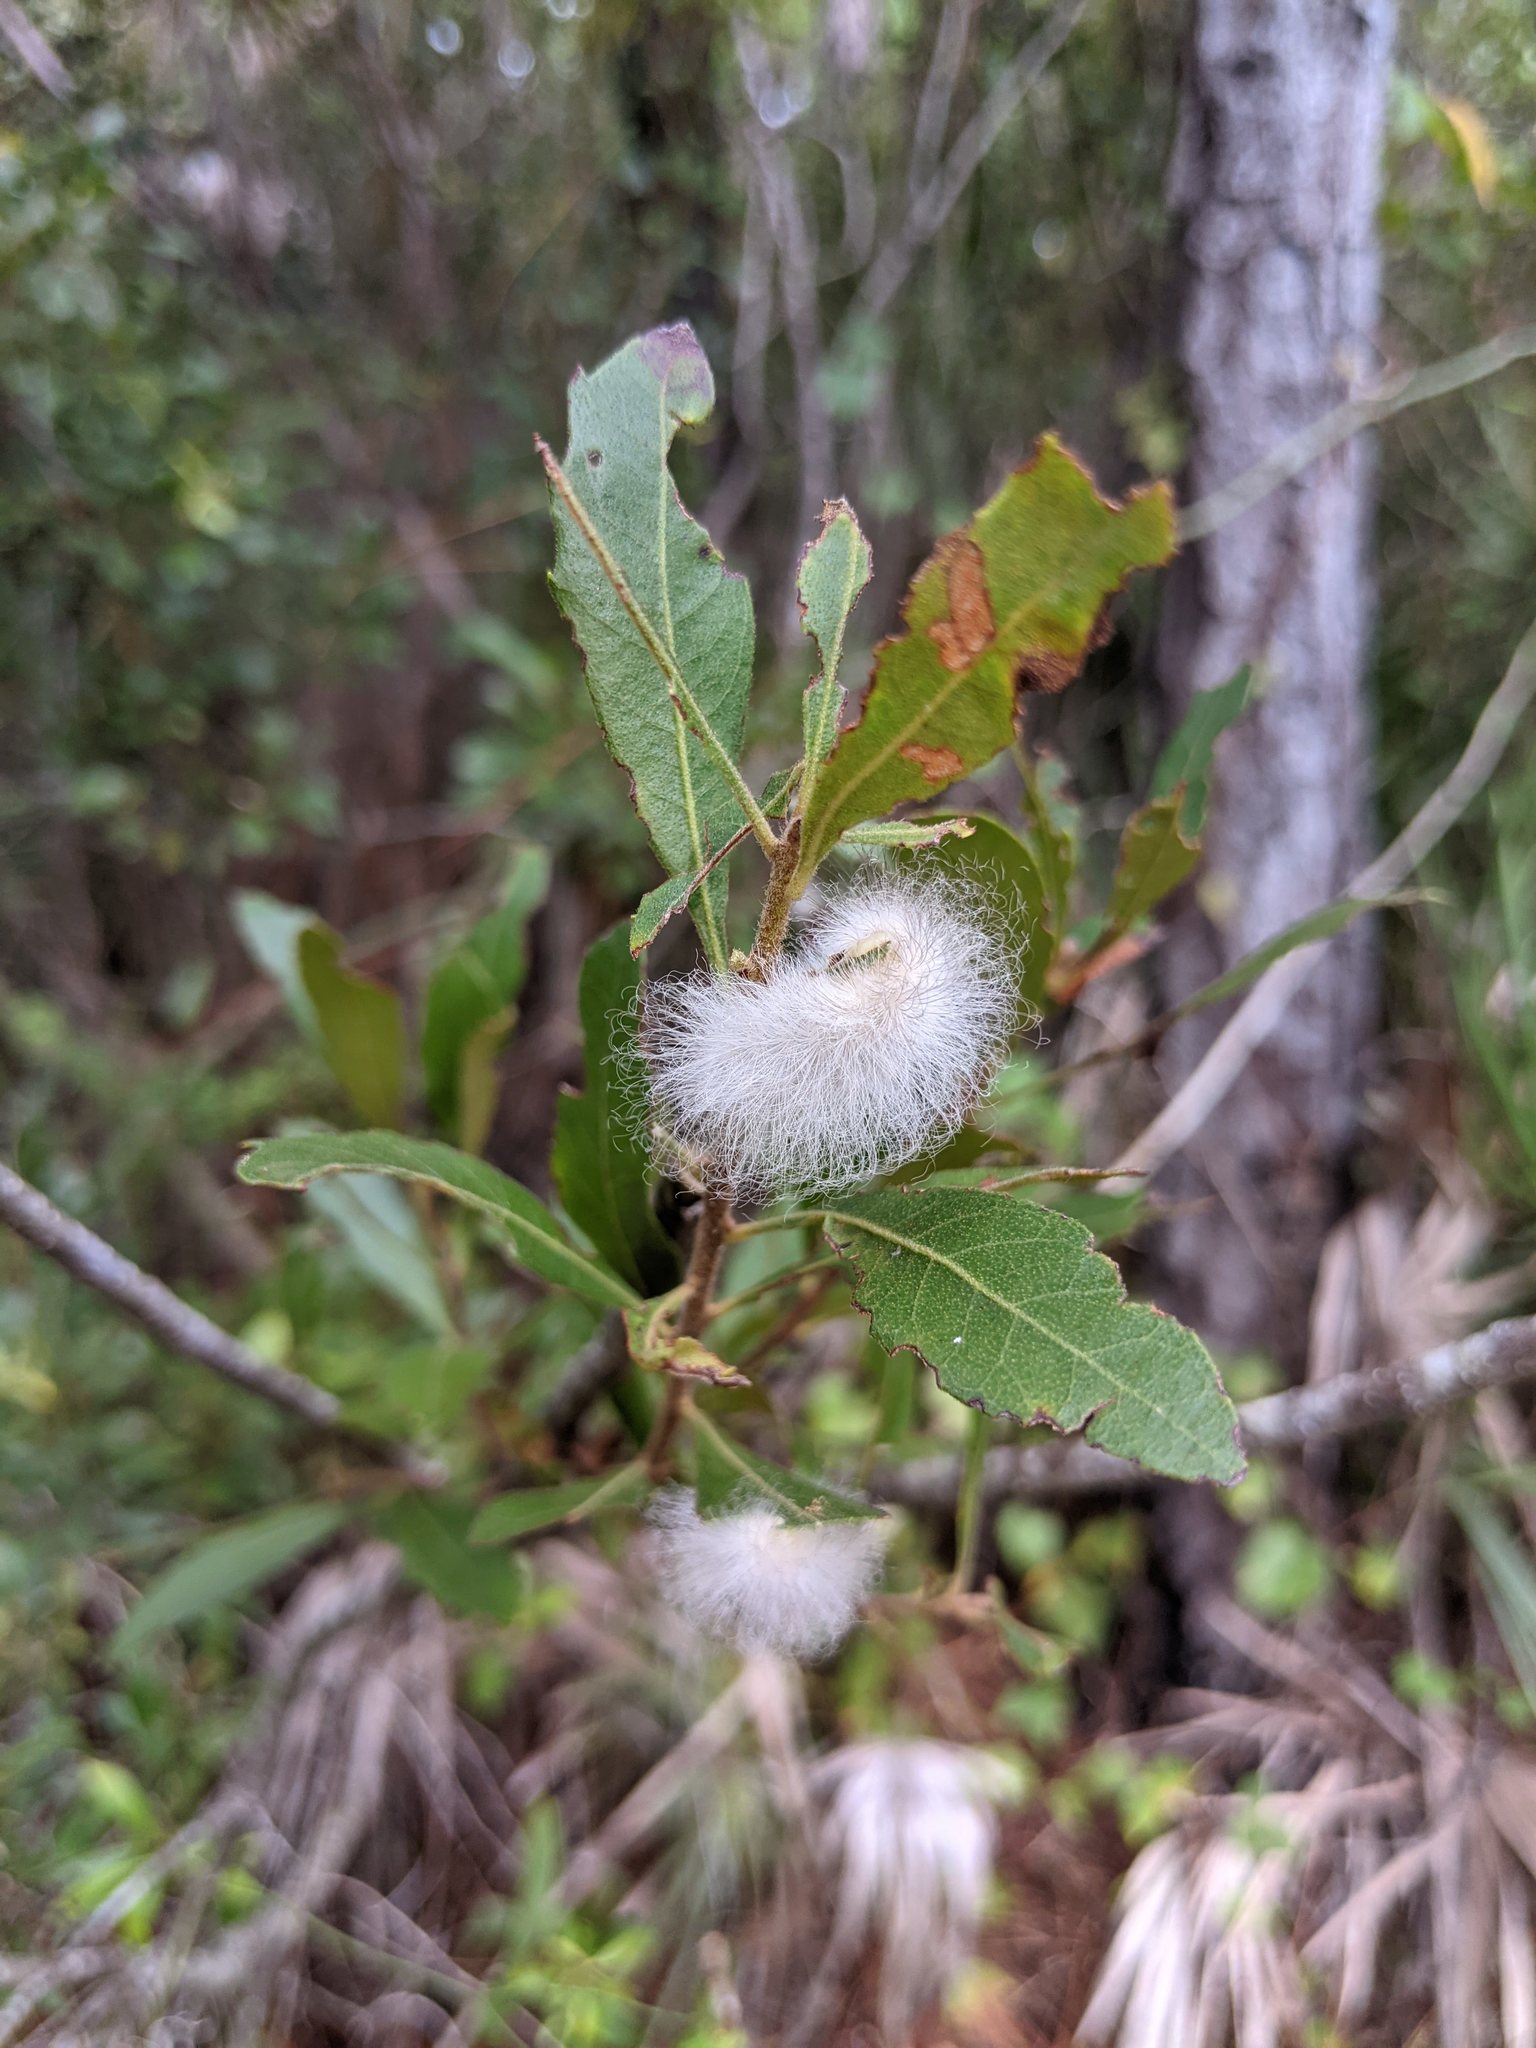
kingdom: Animalia
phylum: Arthropoda
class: Insecta
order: Lepidoptera
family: Megalopygidae
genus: Megalopyge
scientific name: Megalopyge
